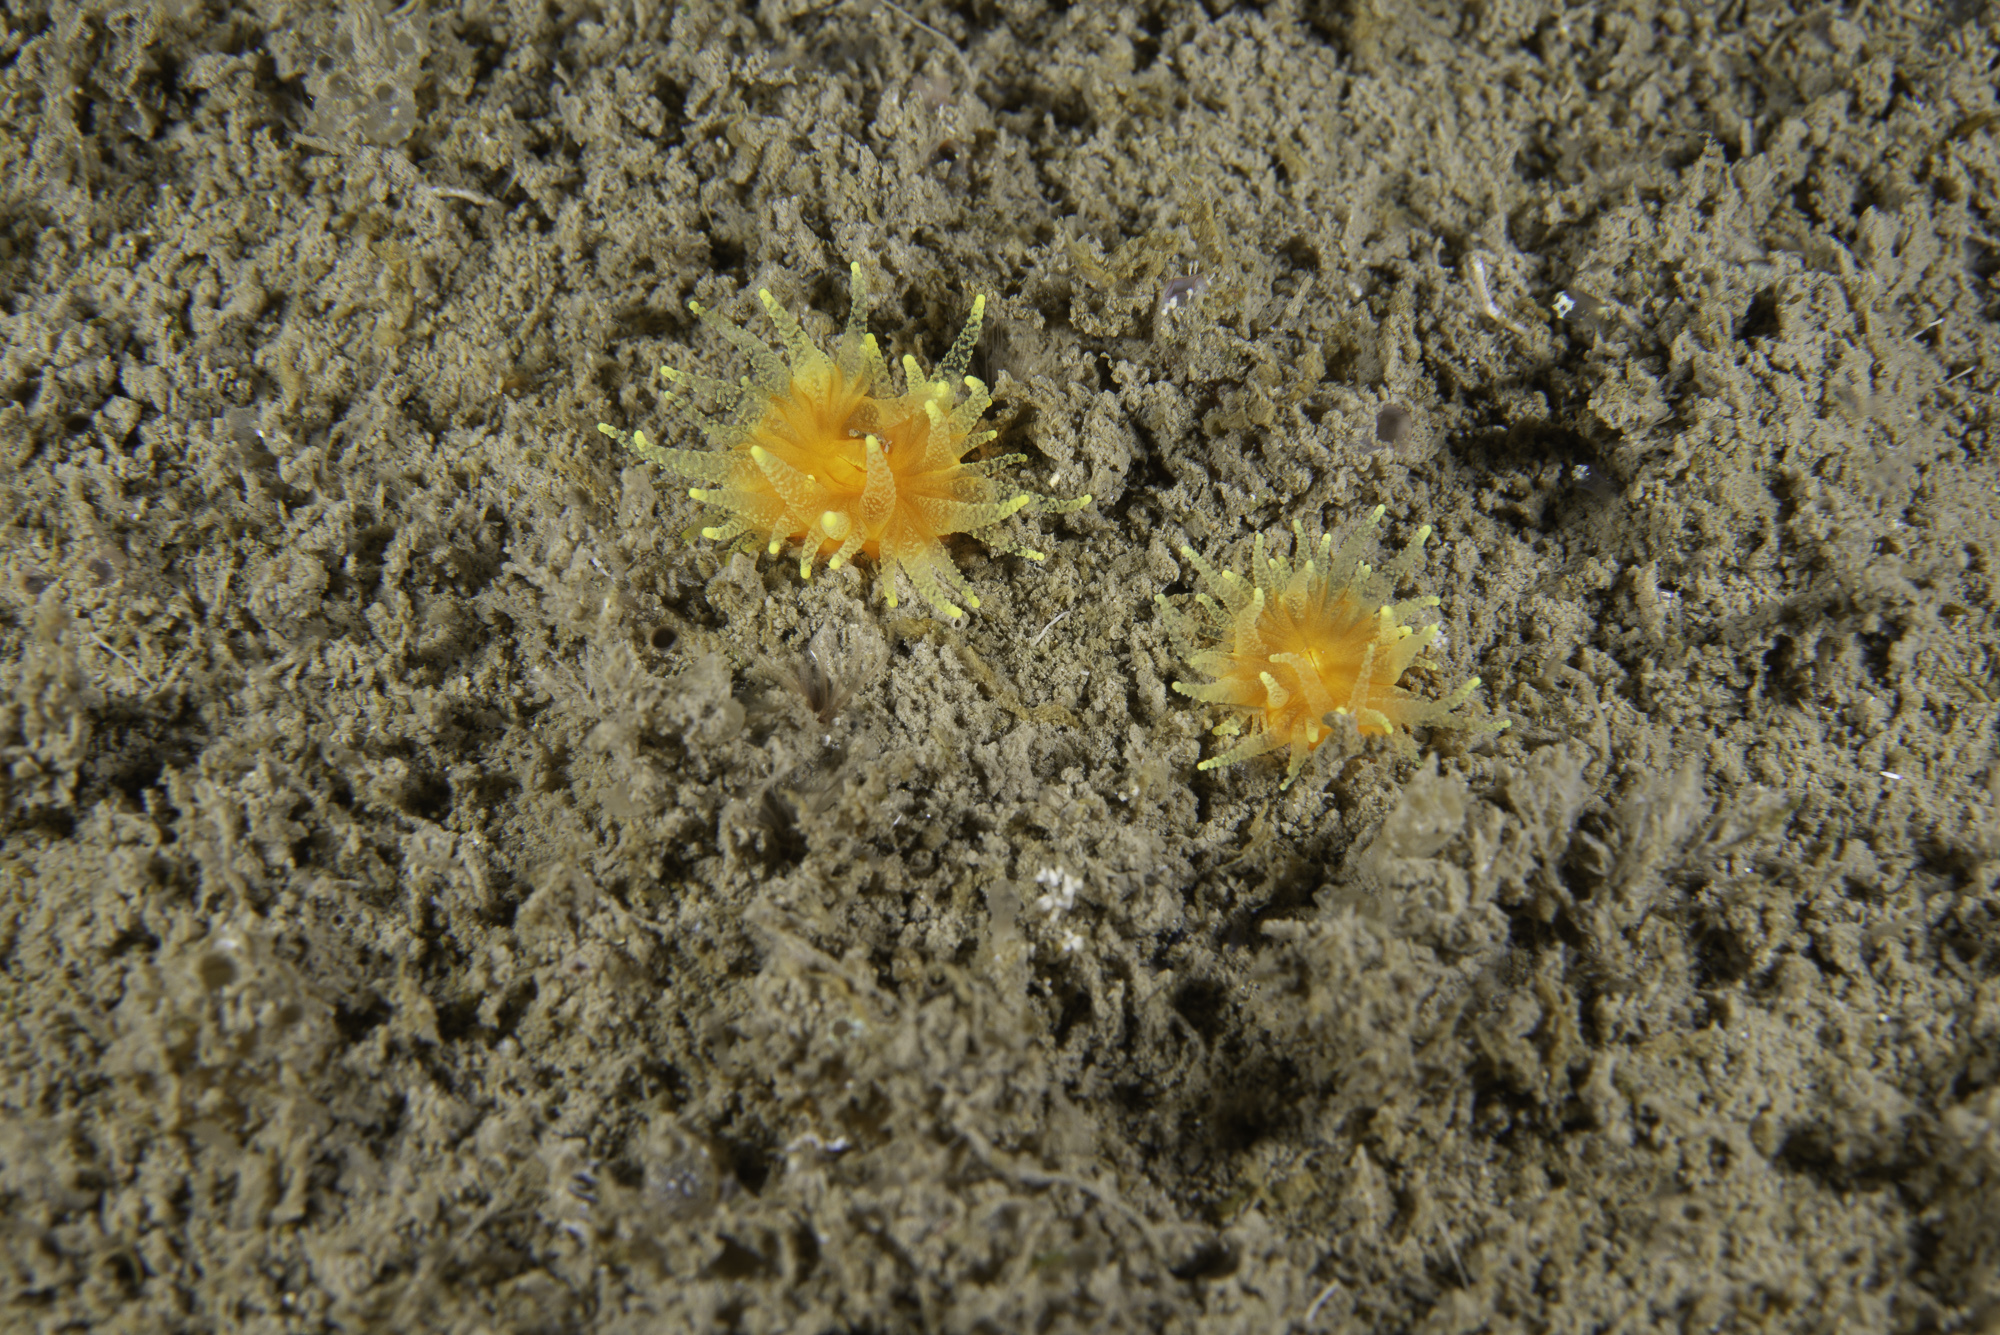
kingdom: Animalia
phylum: Cnidaria
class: Anthozoa
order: Scleractinia
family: Dendrophylliidae
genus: Balanophyllia
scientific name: Balanophyllia regia
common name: Golden star coral
